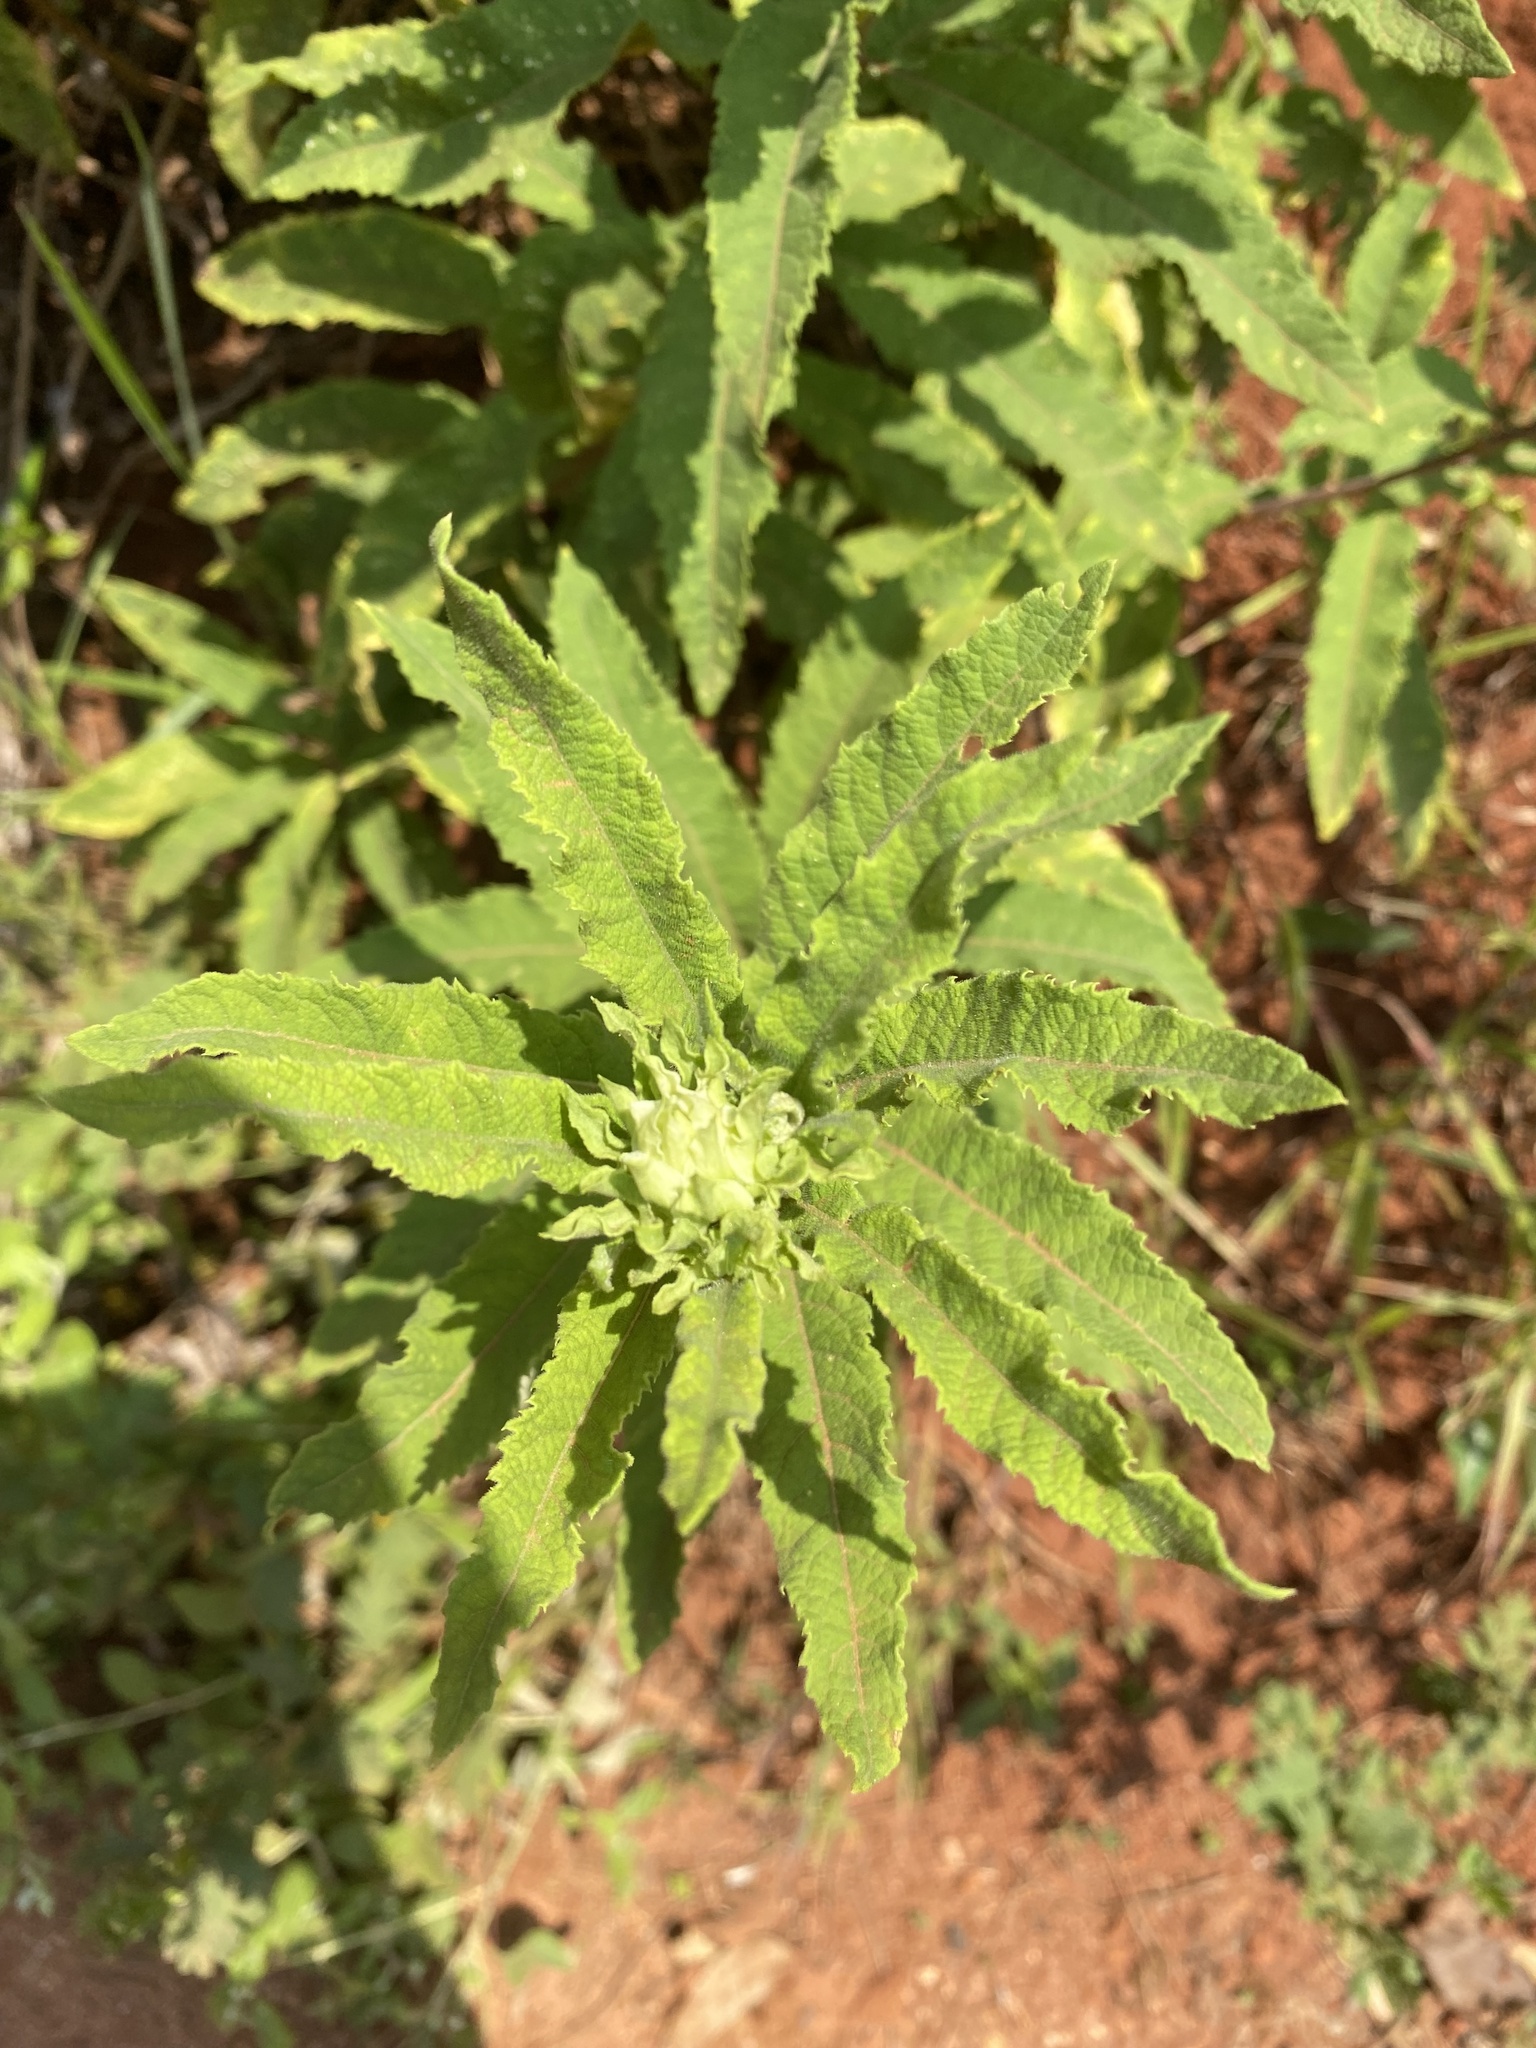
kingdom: Plantae
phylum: Tracheophyta
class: Magnoliopsida
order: Asterales
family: Asteraceae
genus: Baccharoides
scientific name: Baccharoides adoensis
